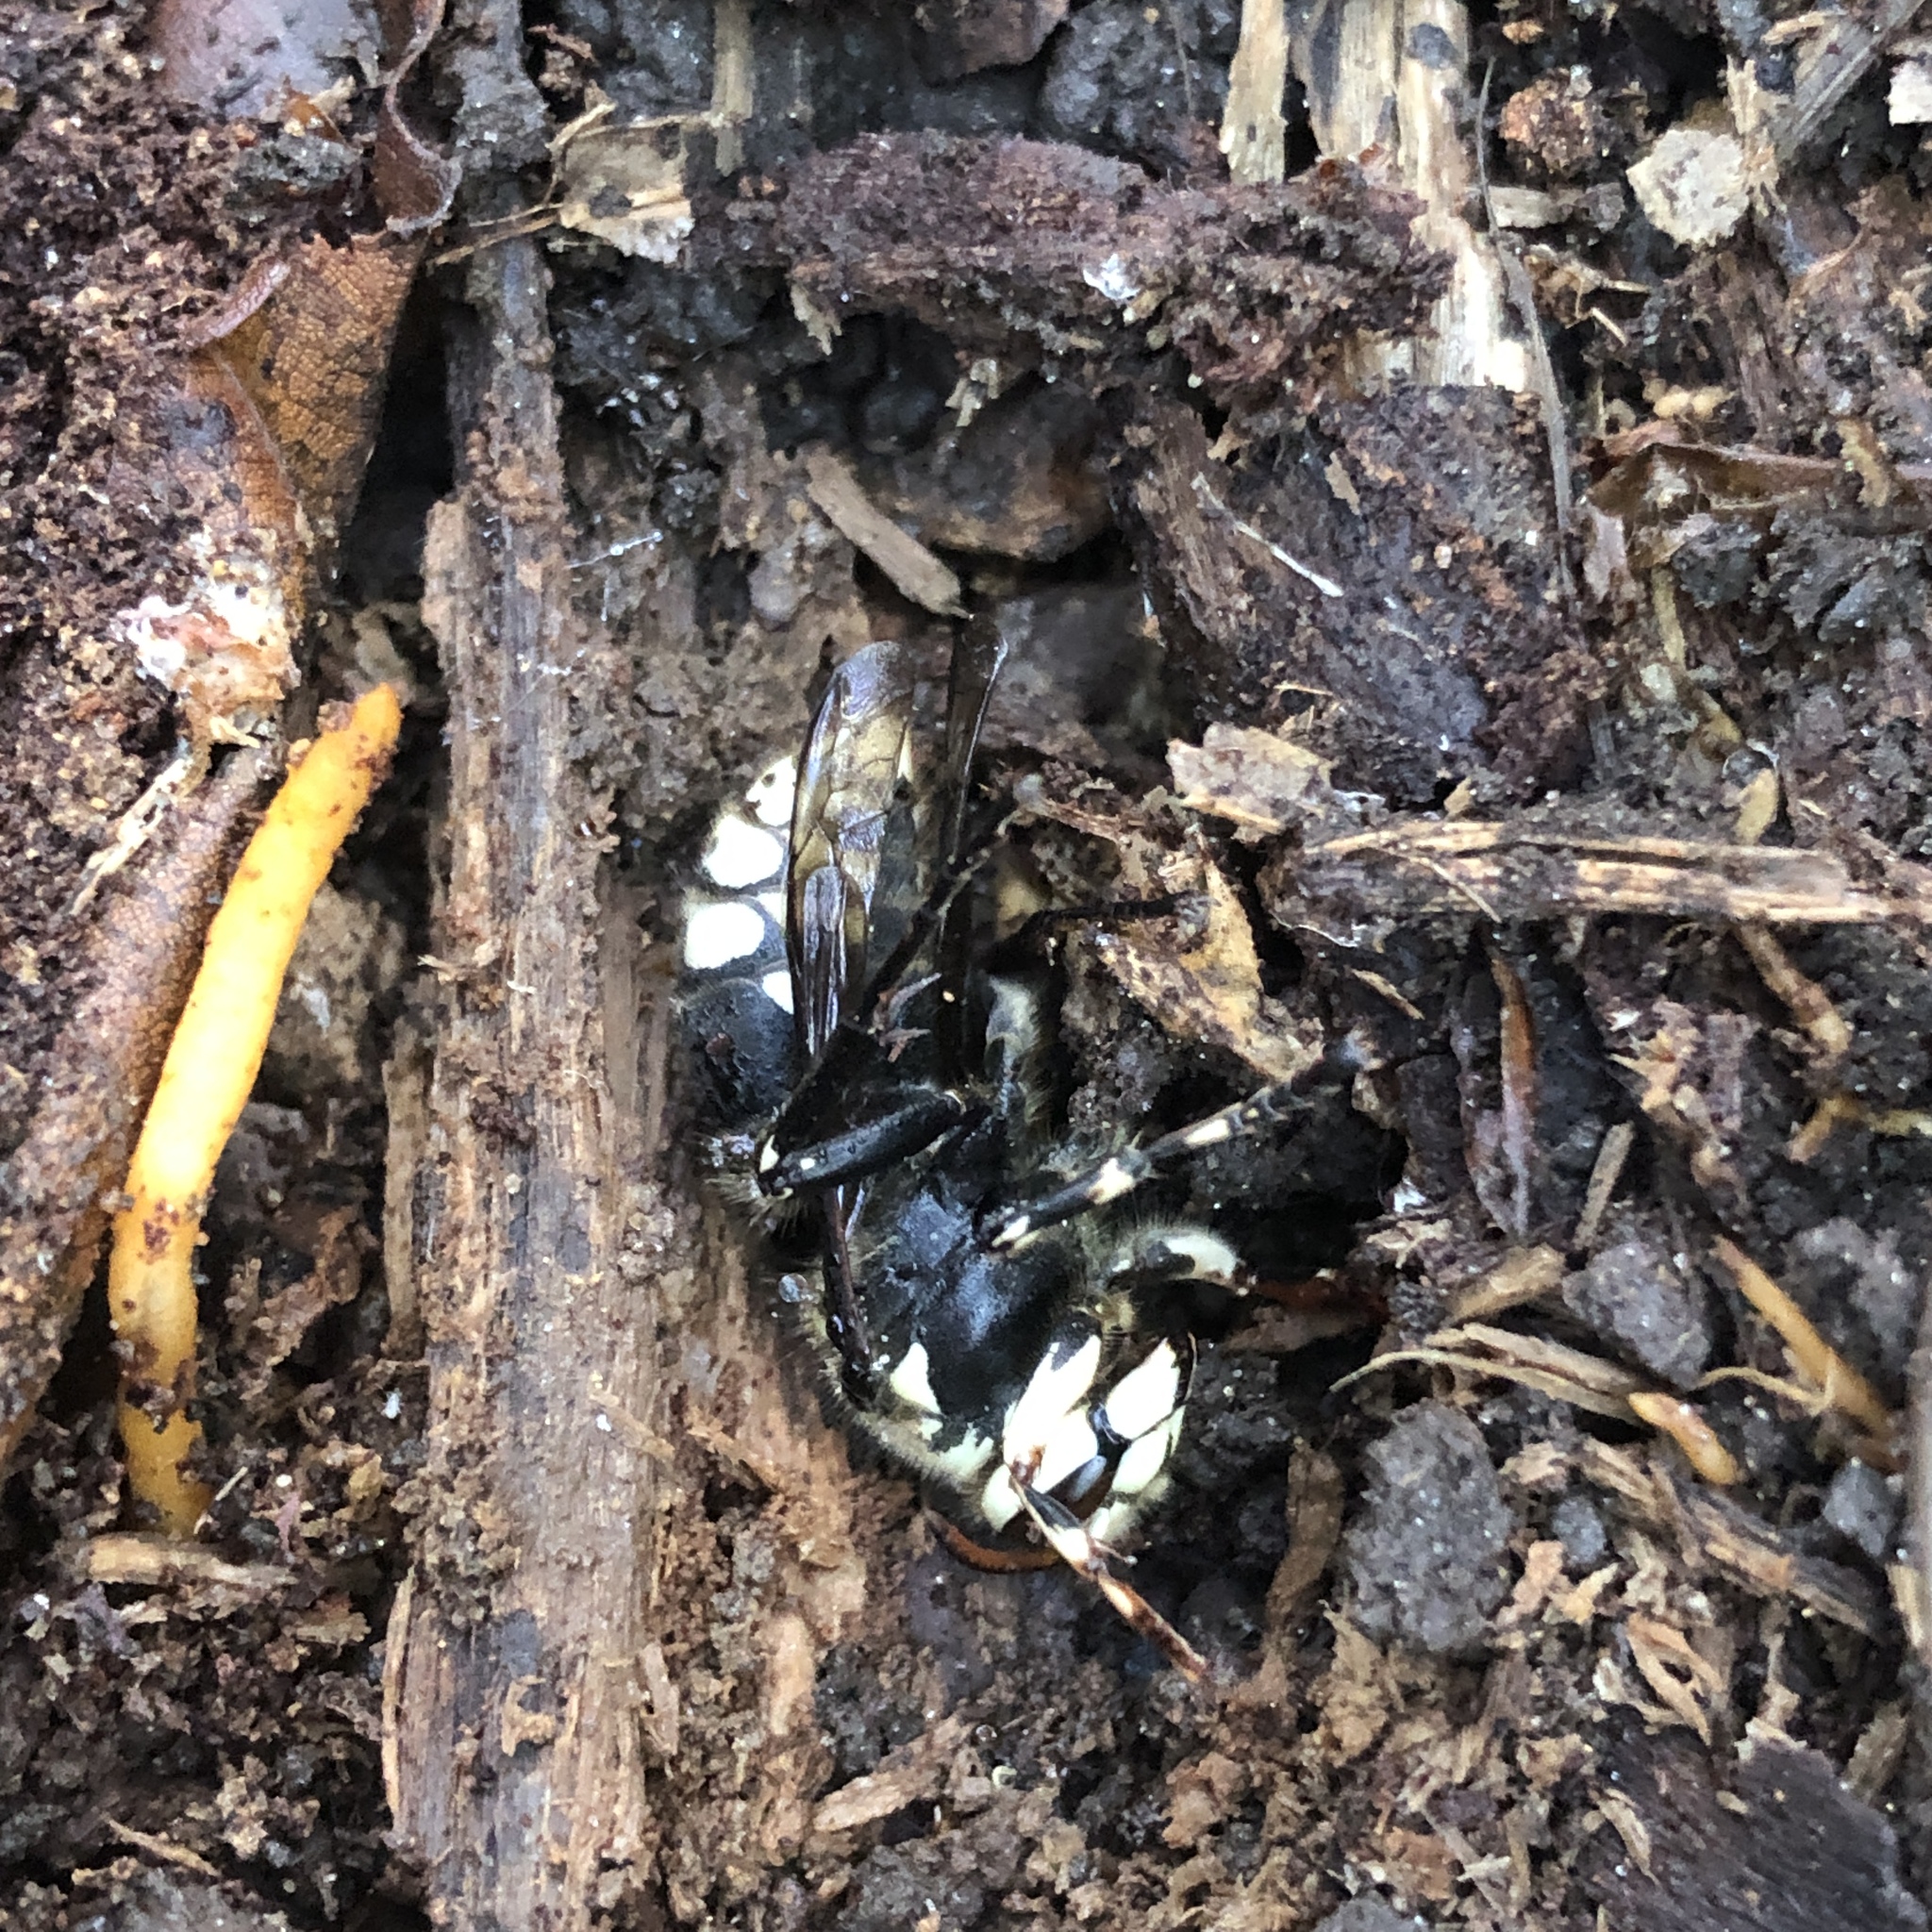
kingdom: Animalia
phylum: Arthropoda
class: Insecta
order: Hymenoptera
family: Vespidae
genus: Dolichovespula
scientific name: Dolichovespula maculata
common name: Bald-faced hornet
